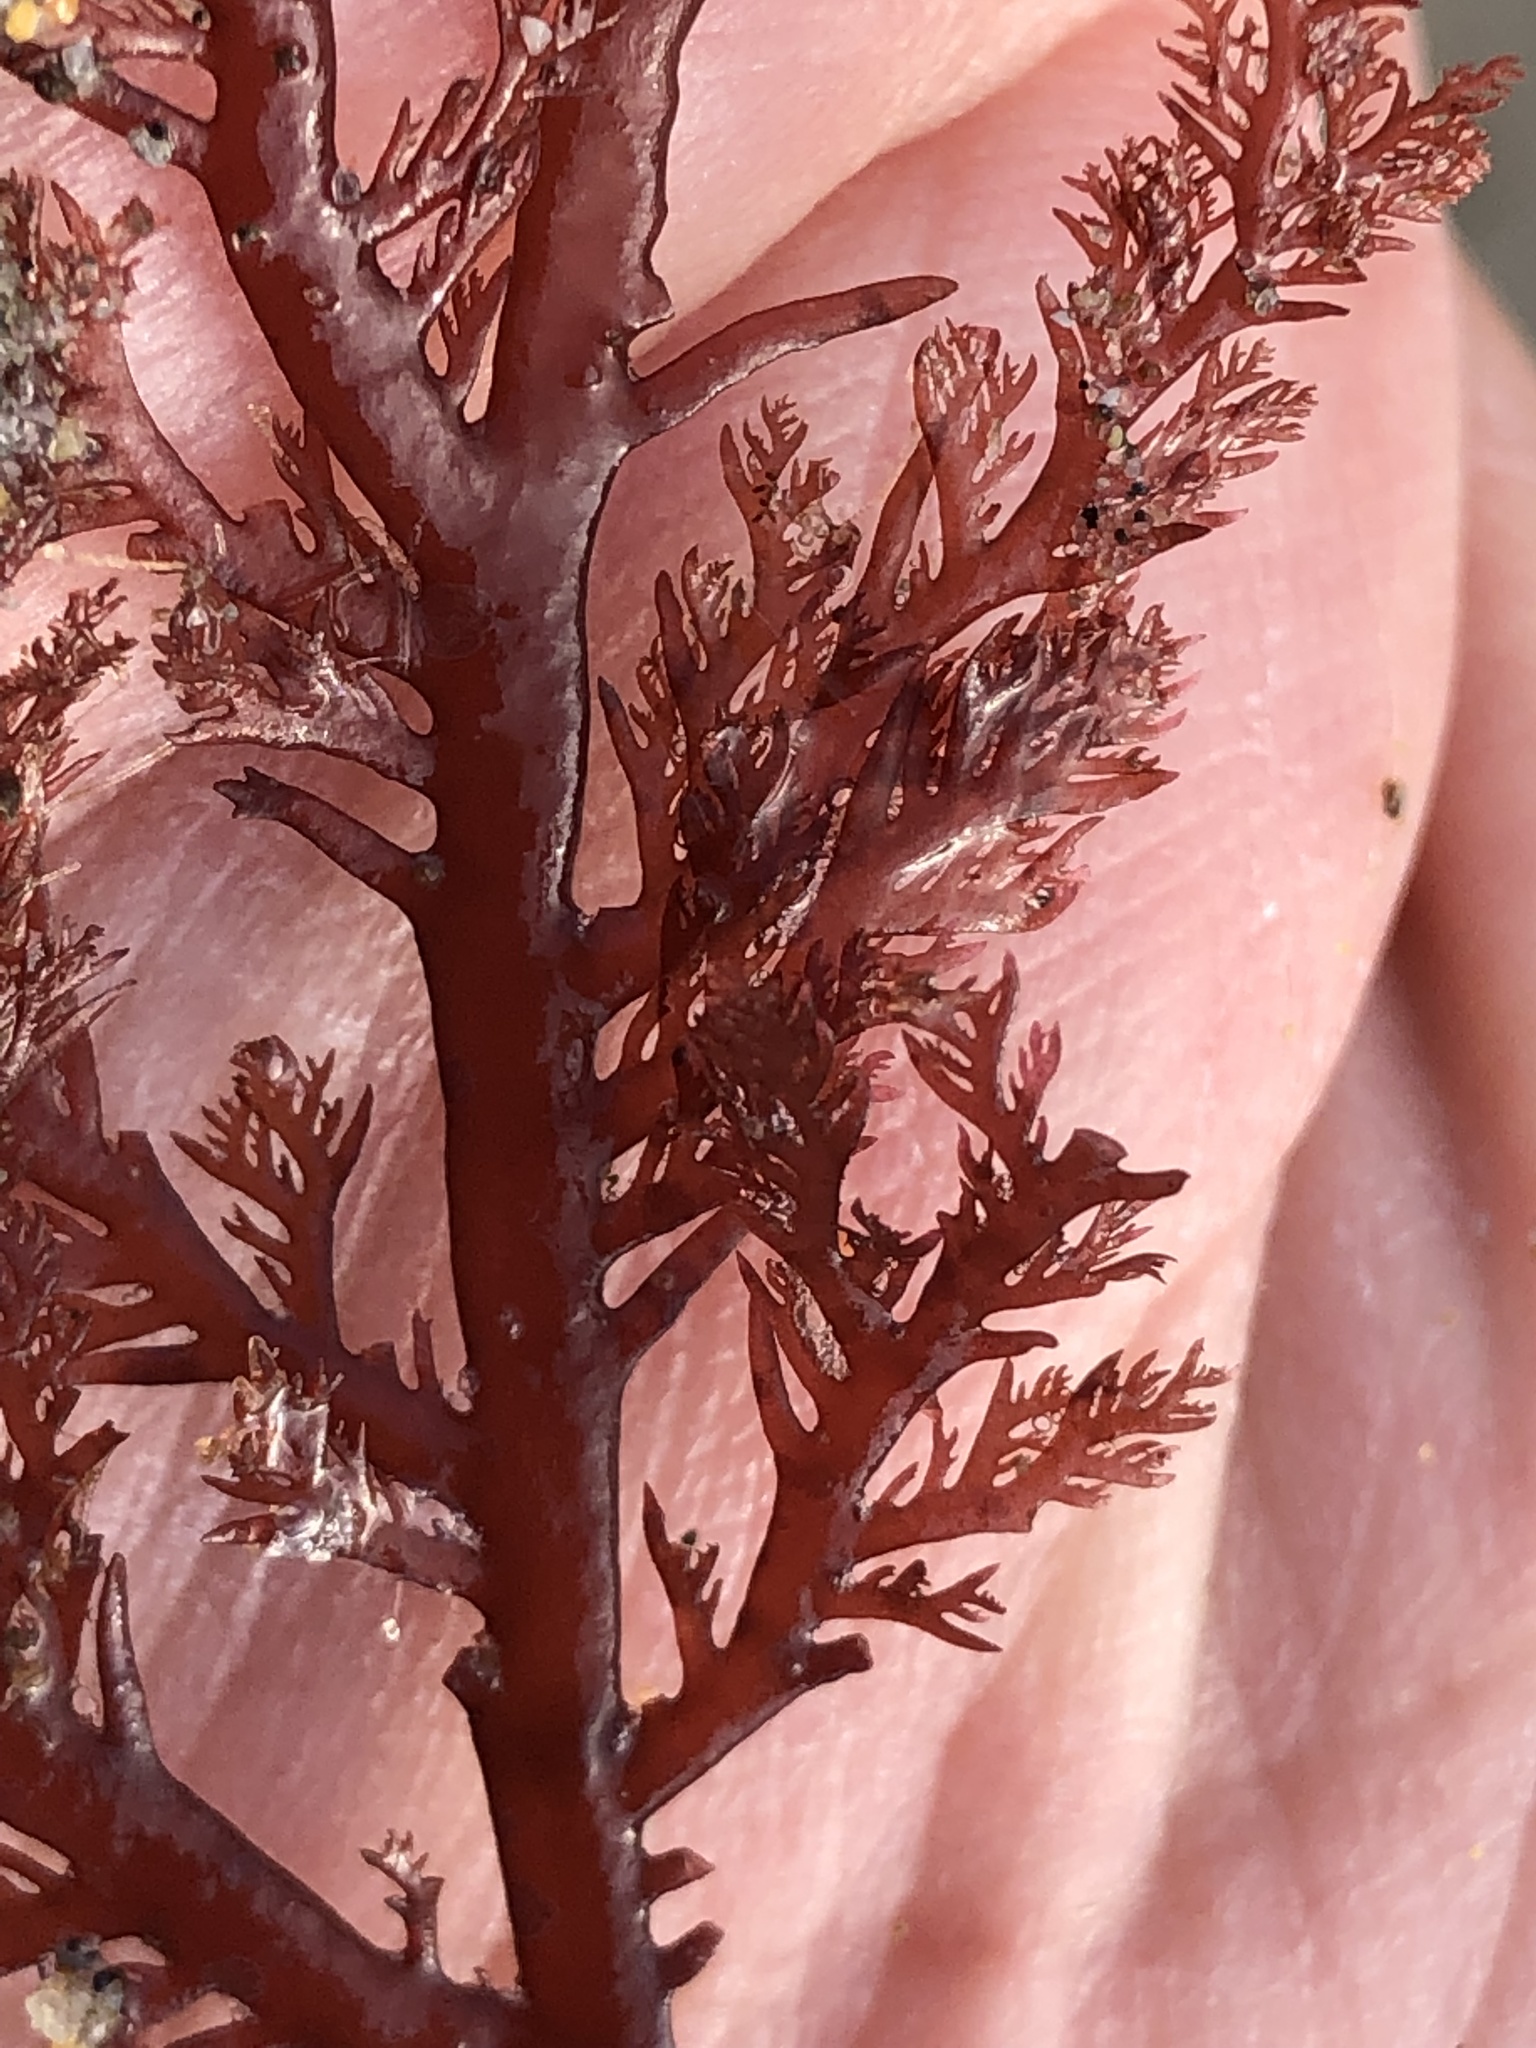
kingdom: Plantae
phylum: Rhodophyta
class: Florideophyceae
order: Plocamiales
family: Plocamiaceae
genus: Plocamium
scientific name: Plocamium cartilagineum
